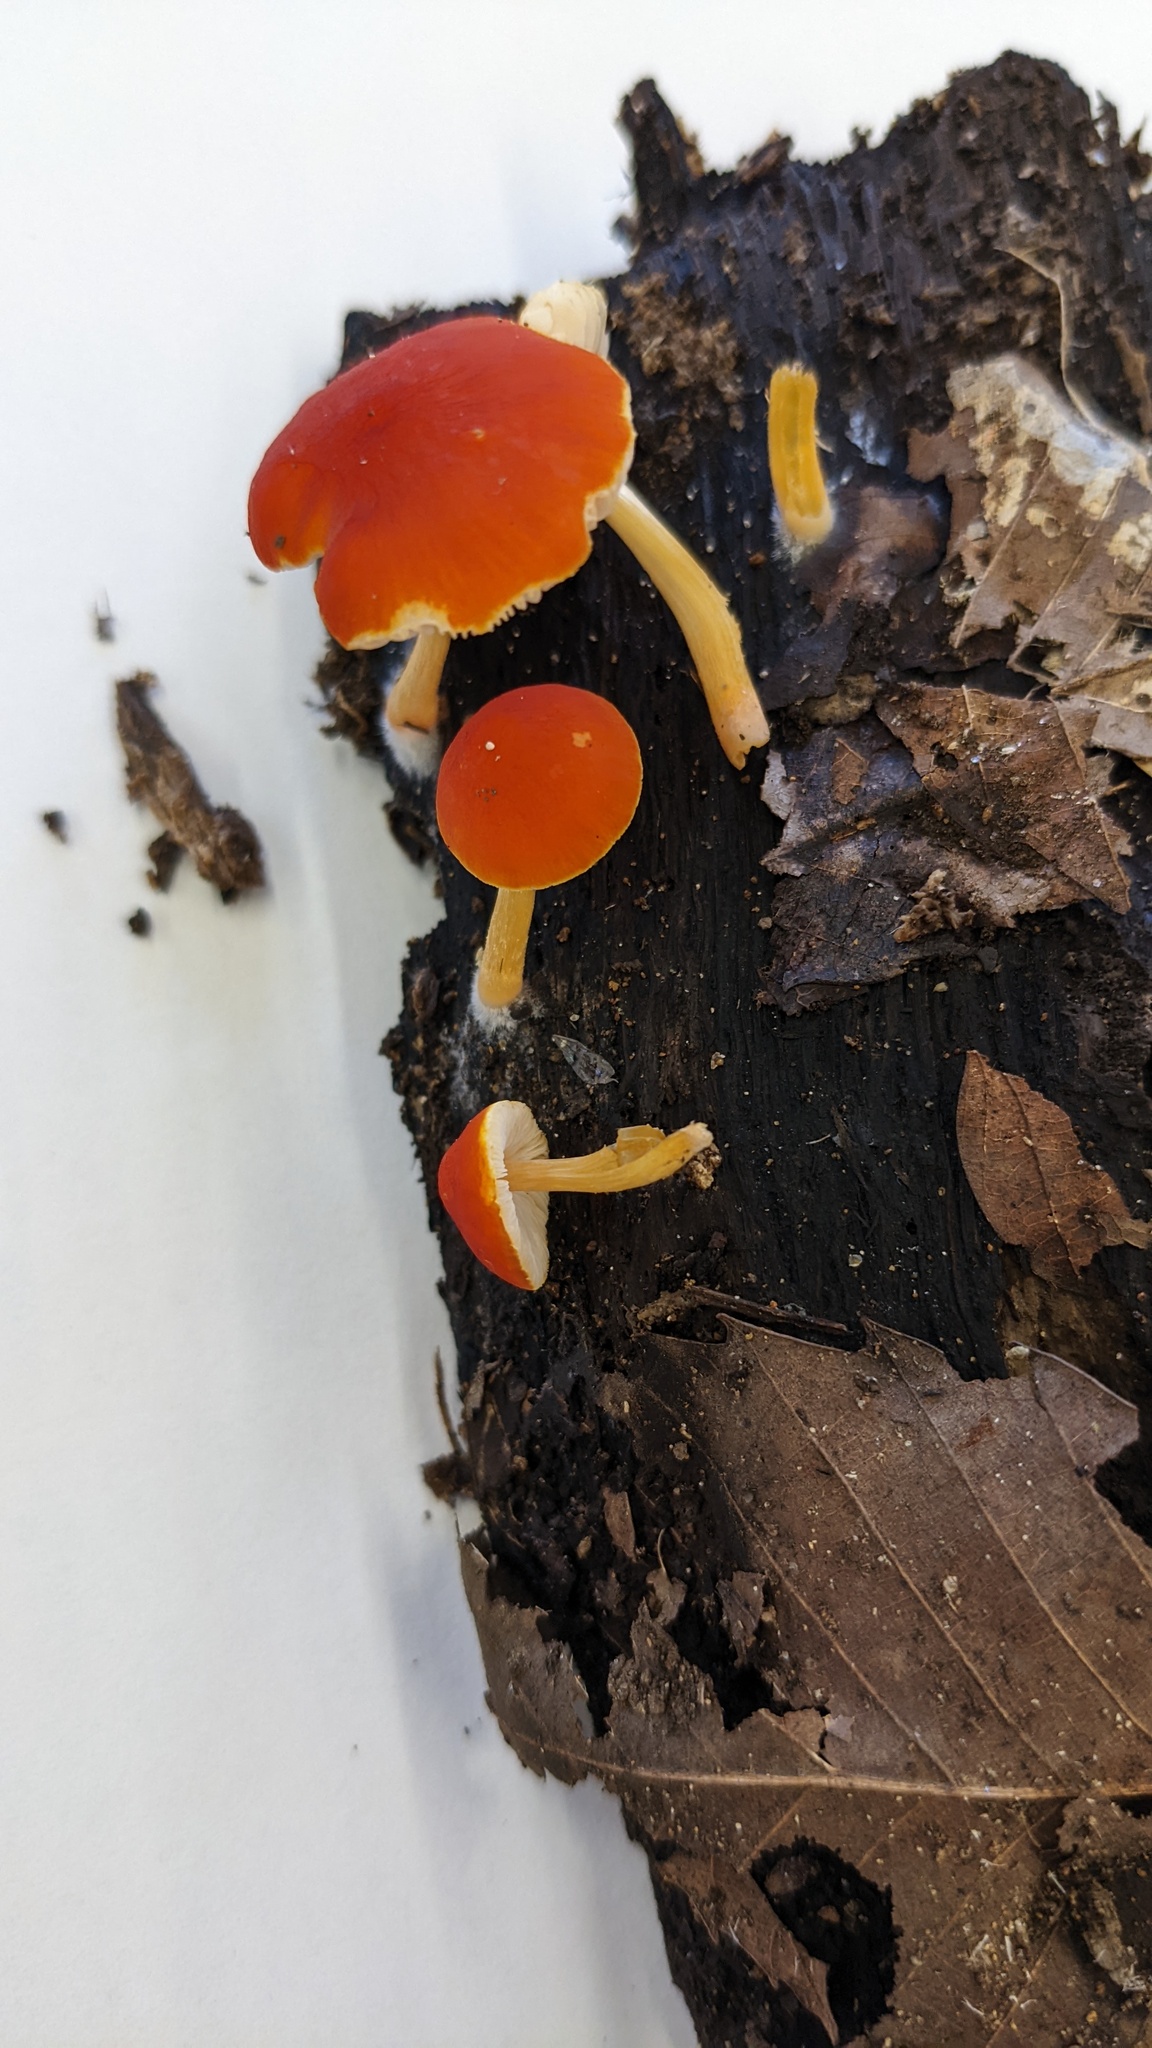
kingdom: Fungi
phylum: Basidiomycota
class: Agaricomycetes
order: Agaricales
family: Pluteaceae
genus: Pluteus
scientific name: Pluteus aurantiorugosus
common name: Flame shield
